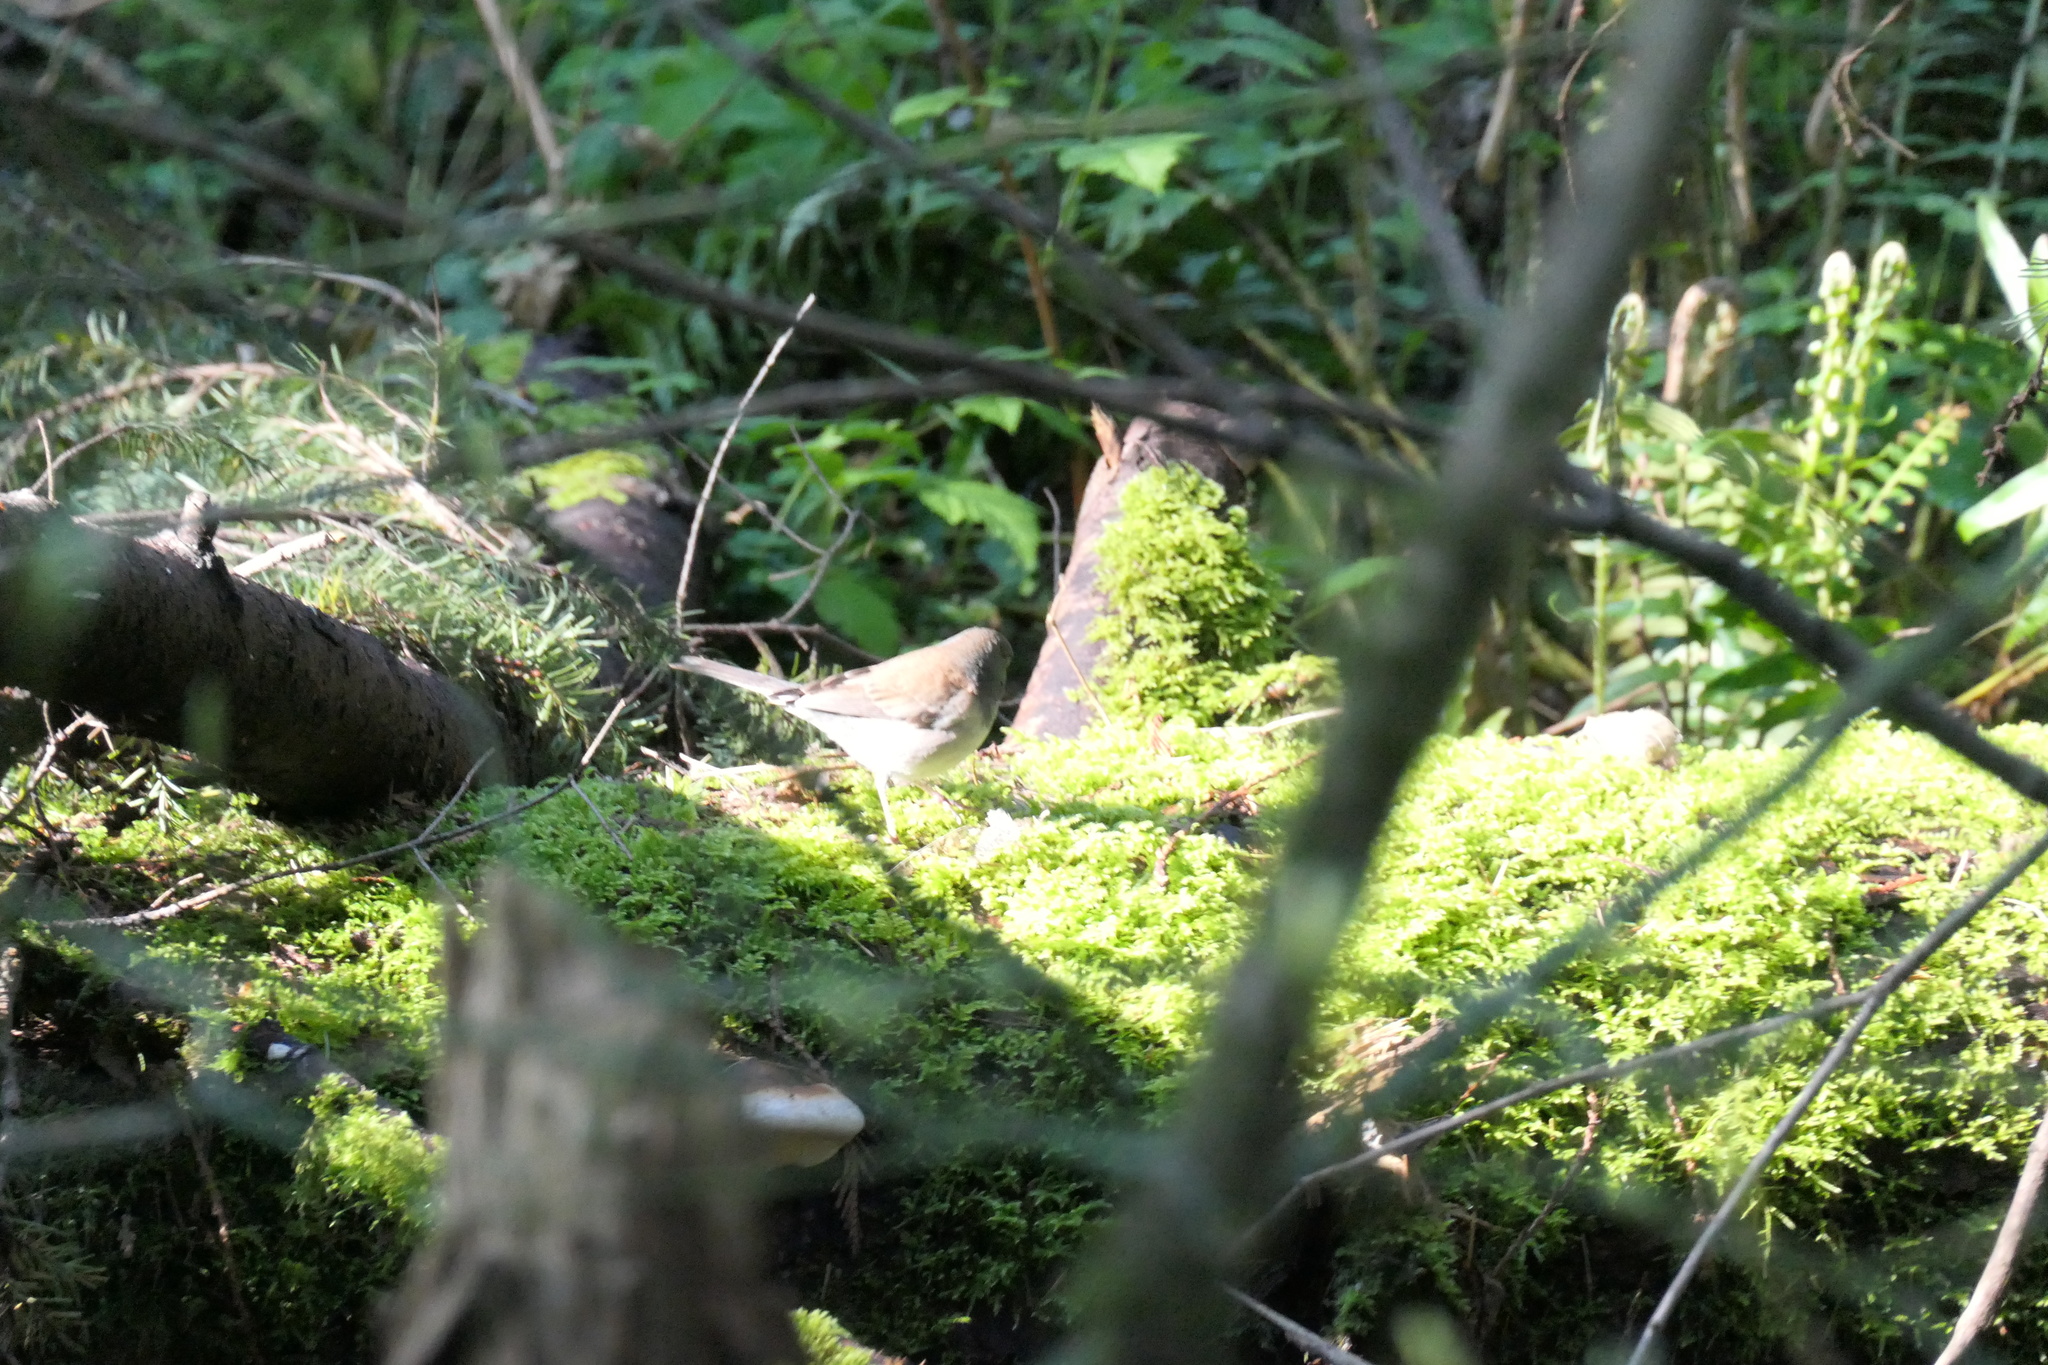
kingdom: Animalia
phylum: Chordata
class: Aves
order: Passeriformes
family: Passerellidae
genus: Junco
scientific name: Junco hyemalis
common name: Dark-eyed junco
